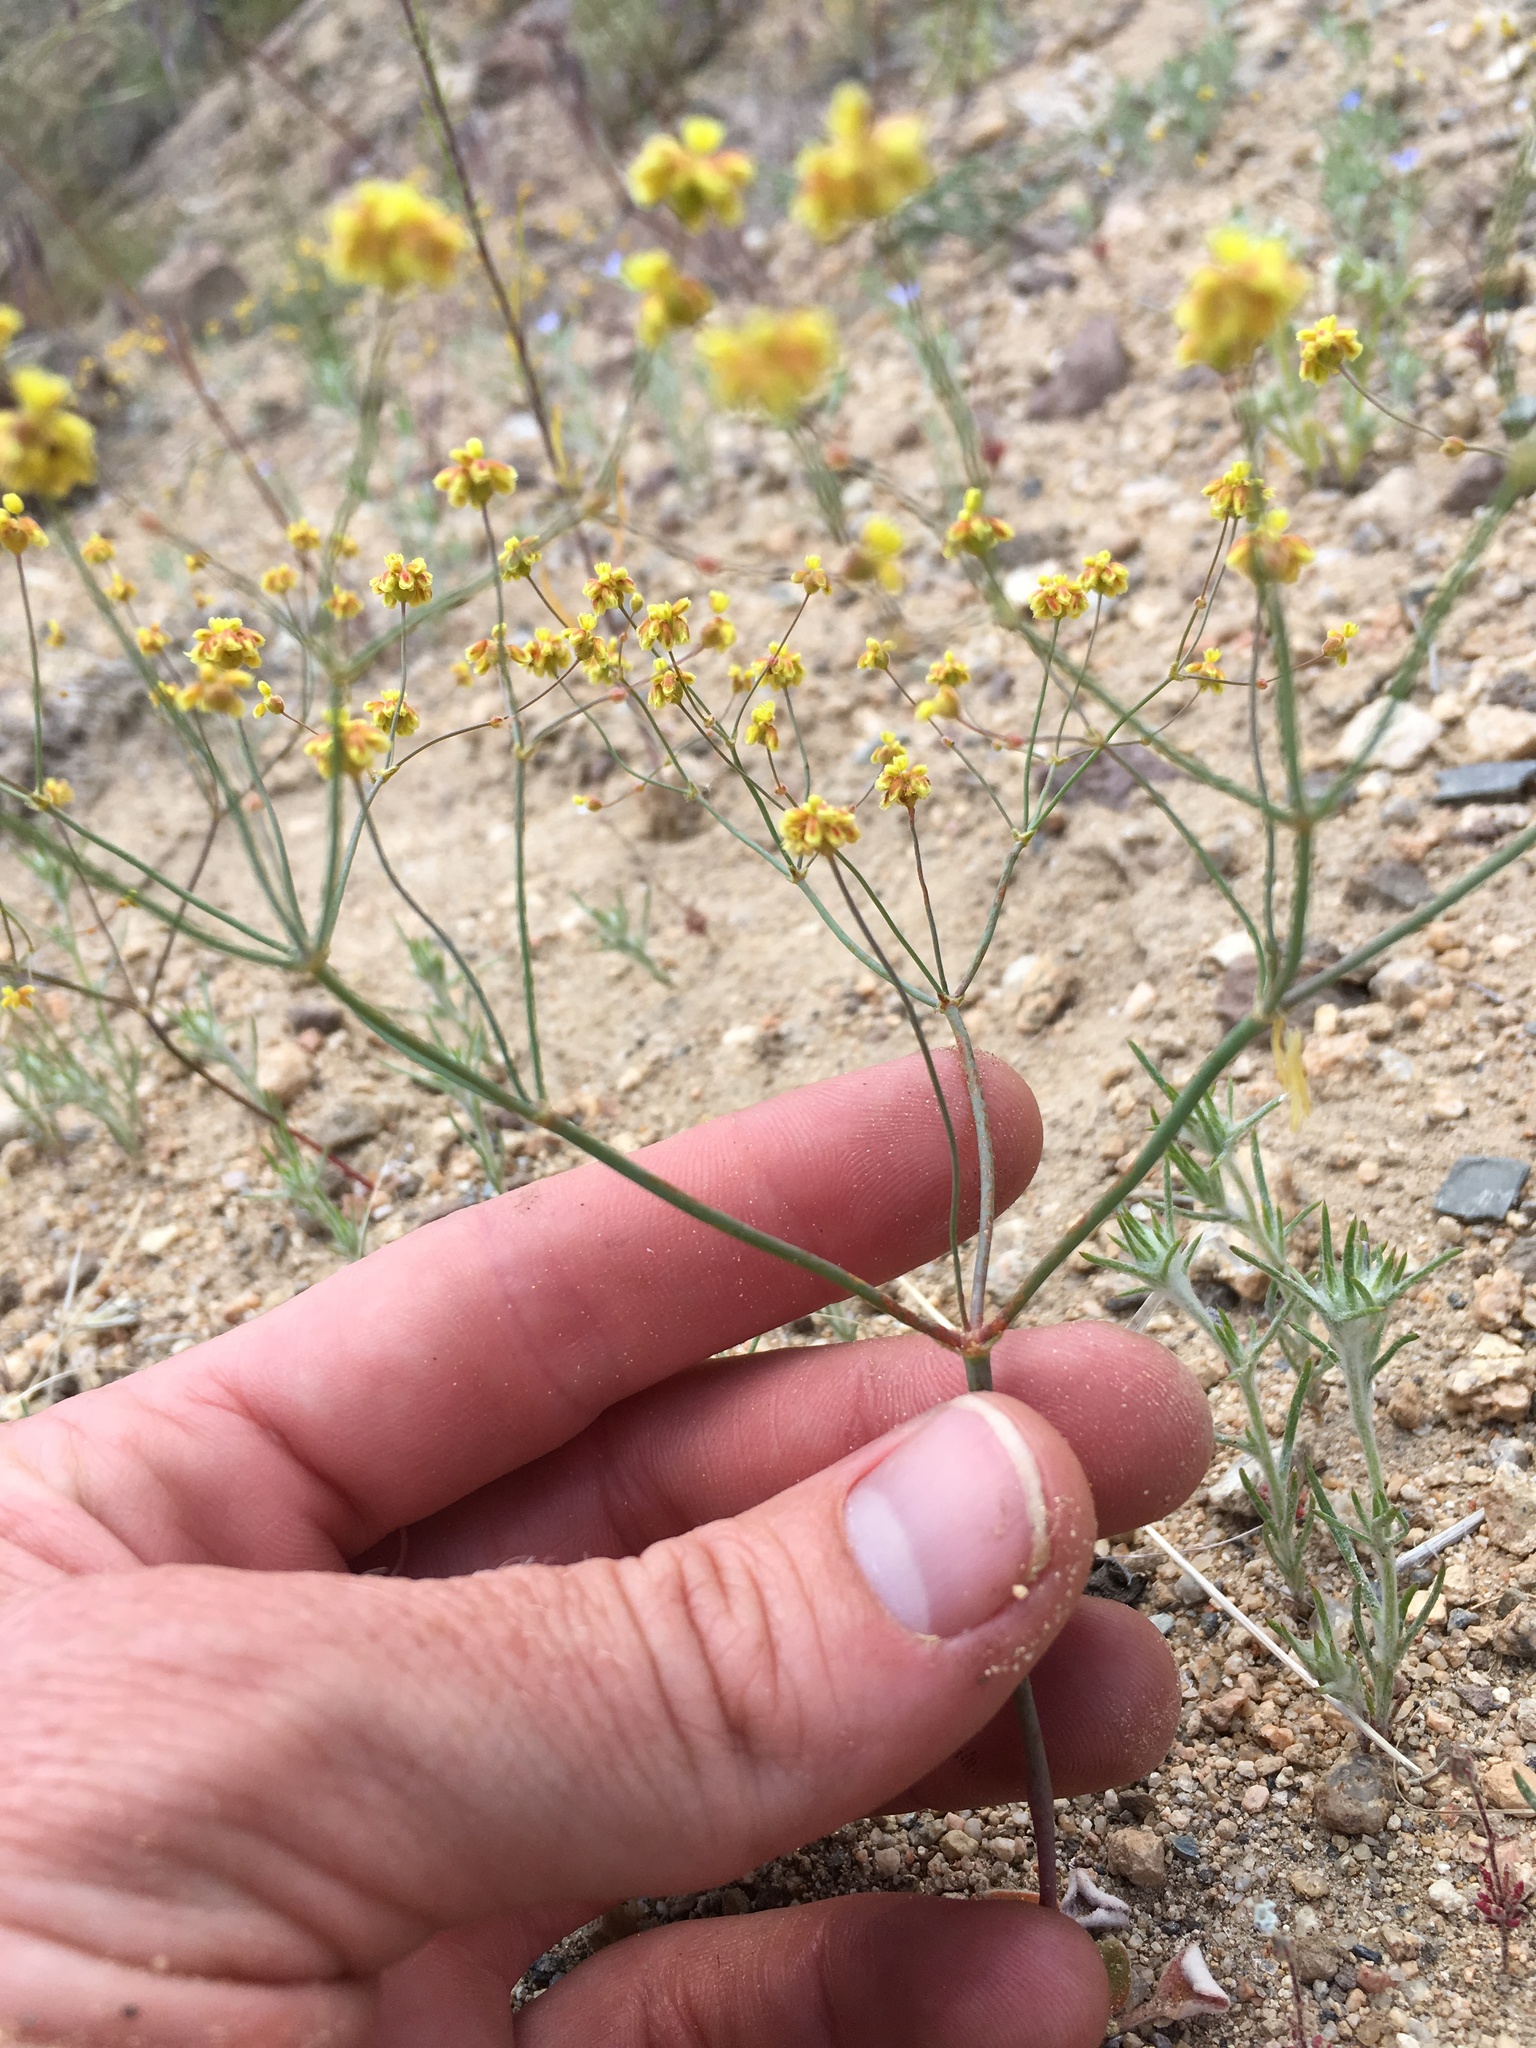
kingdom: Plantae
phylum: Tracheophyta
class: Magnoliopsida
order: Caryophyllales
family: Polygonaceae
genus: Eriogonum
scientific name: Eriogonum pusillum
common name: Yellow turbans
